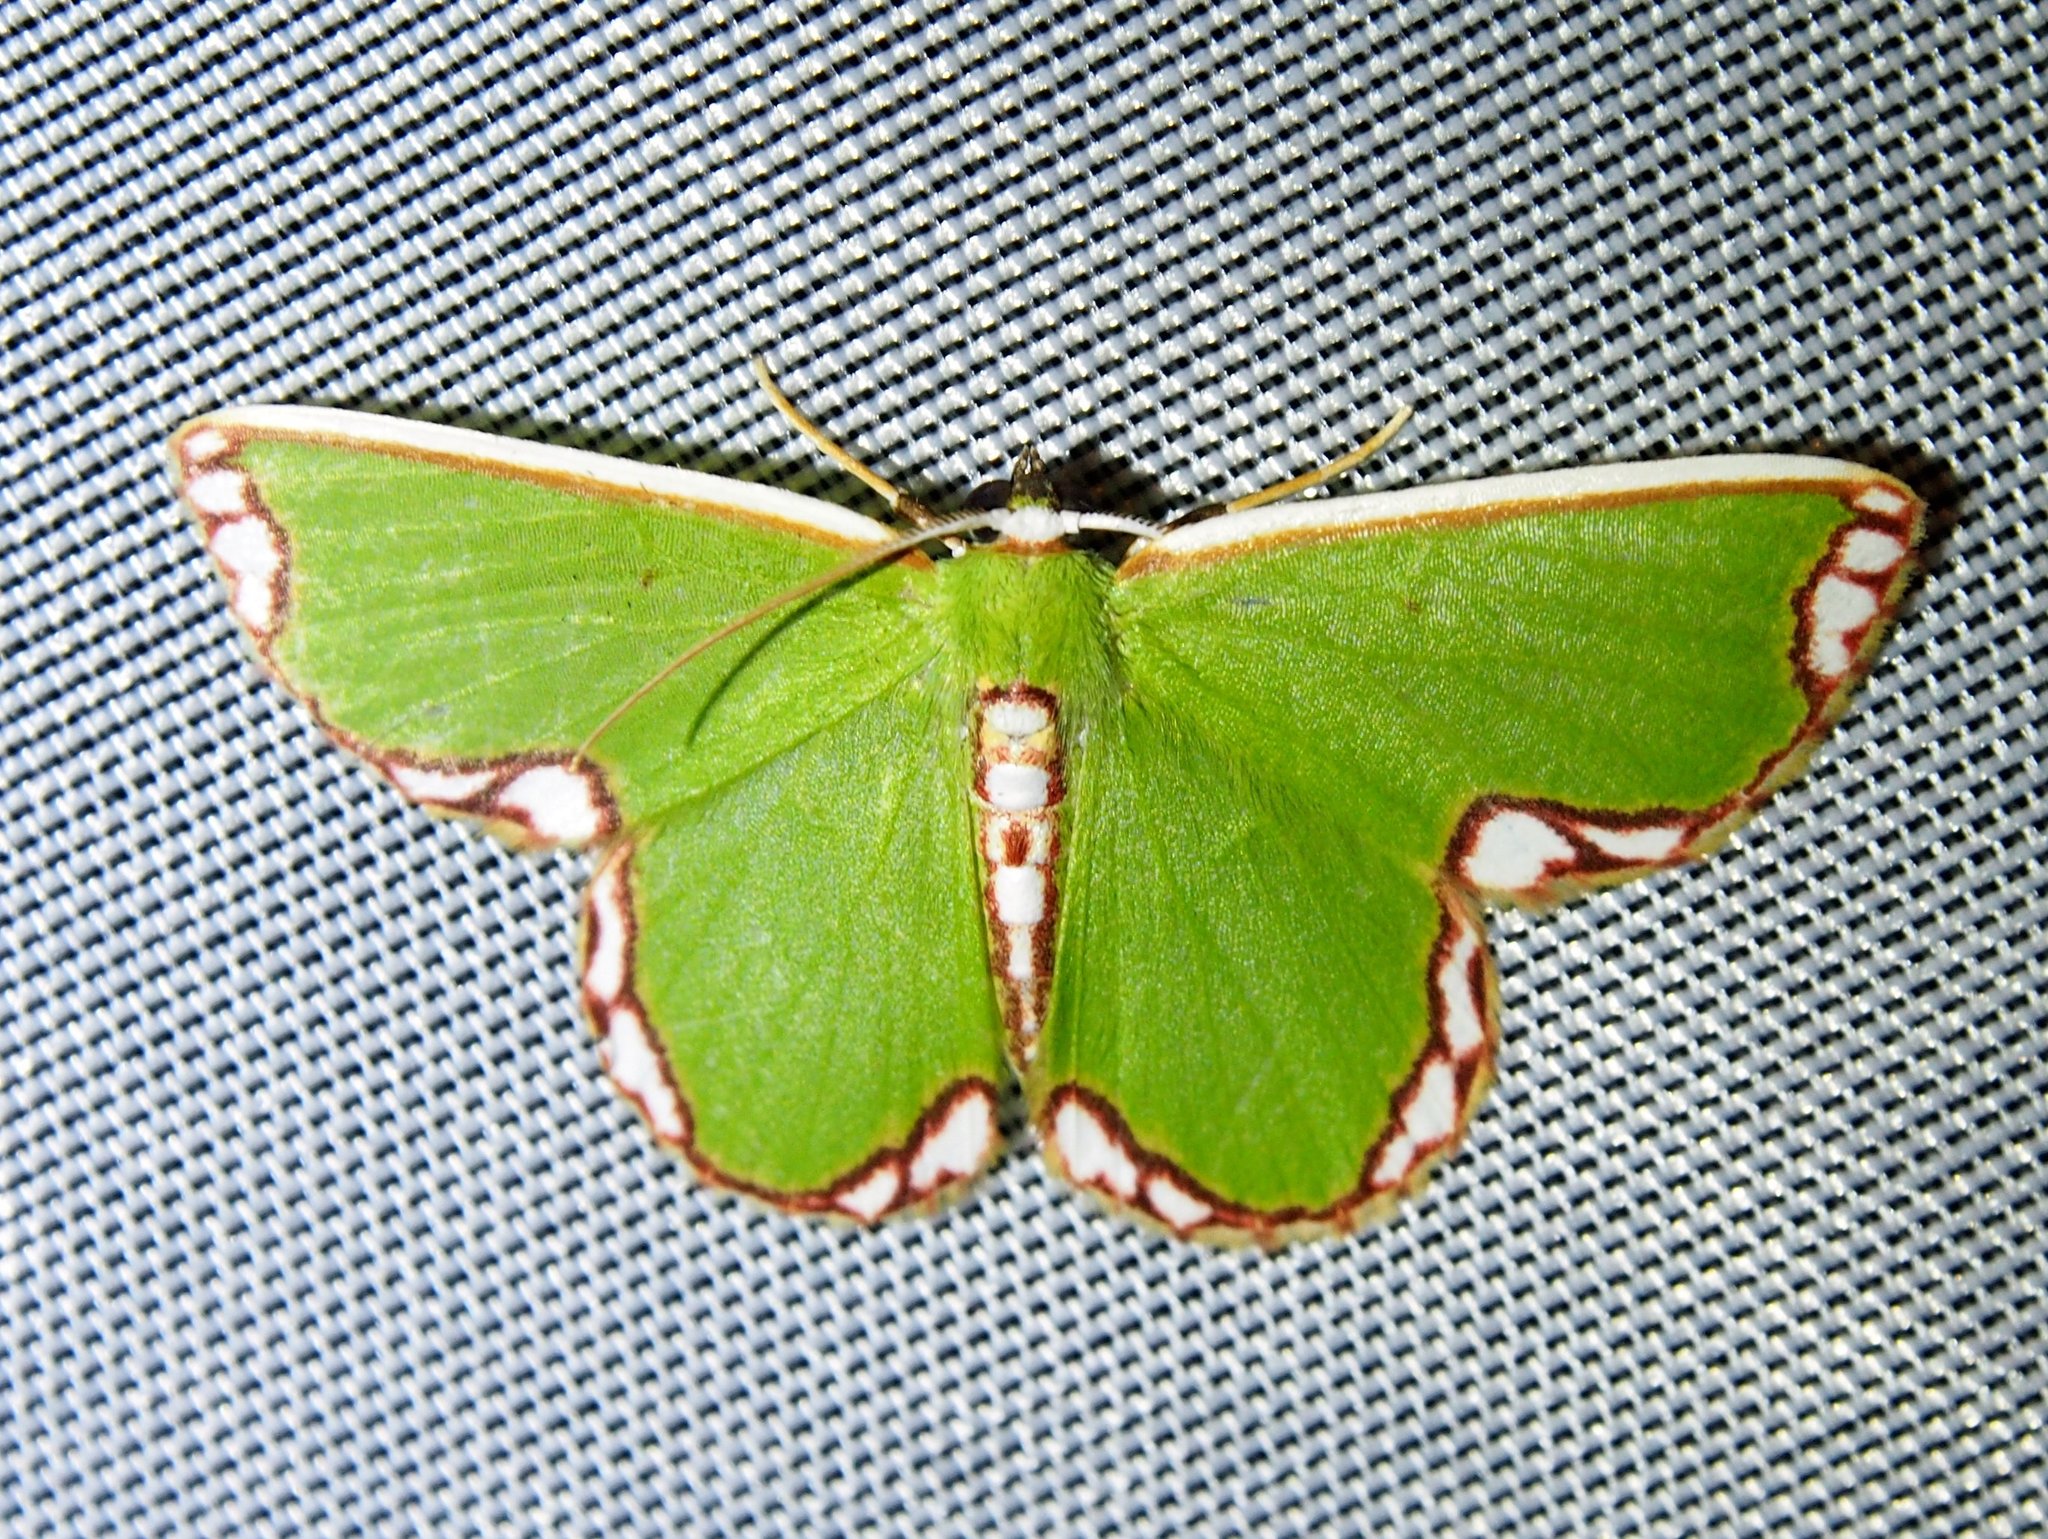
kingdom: Animalia
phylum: Arthropoda
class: Insecta
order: Lepidoptera
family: Geometridae
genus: Chavarriella
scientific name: Chavarriella fallax
